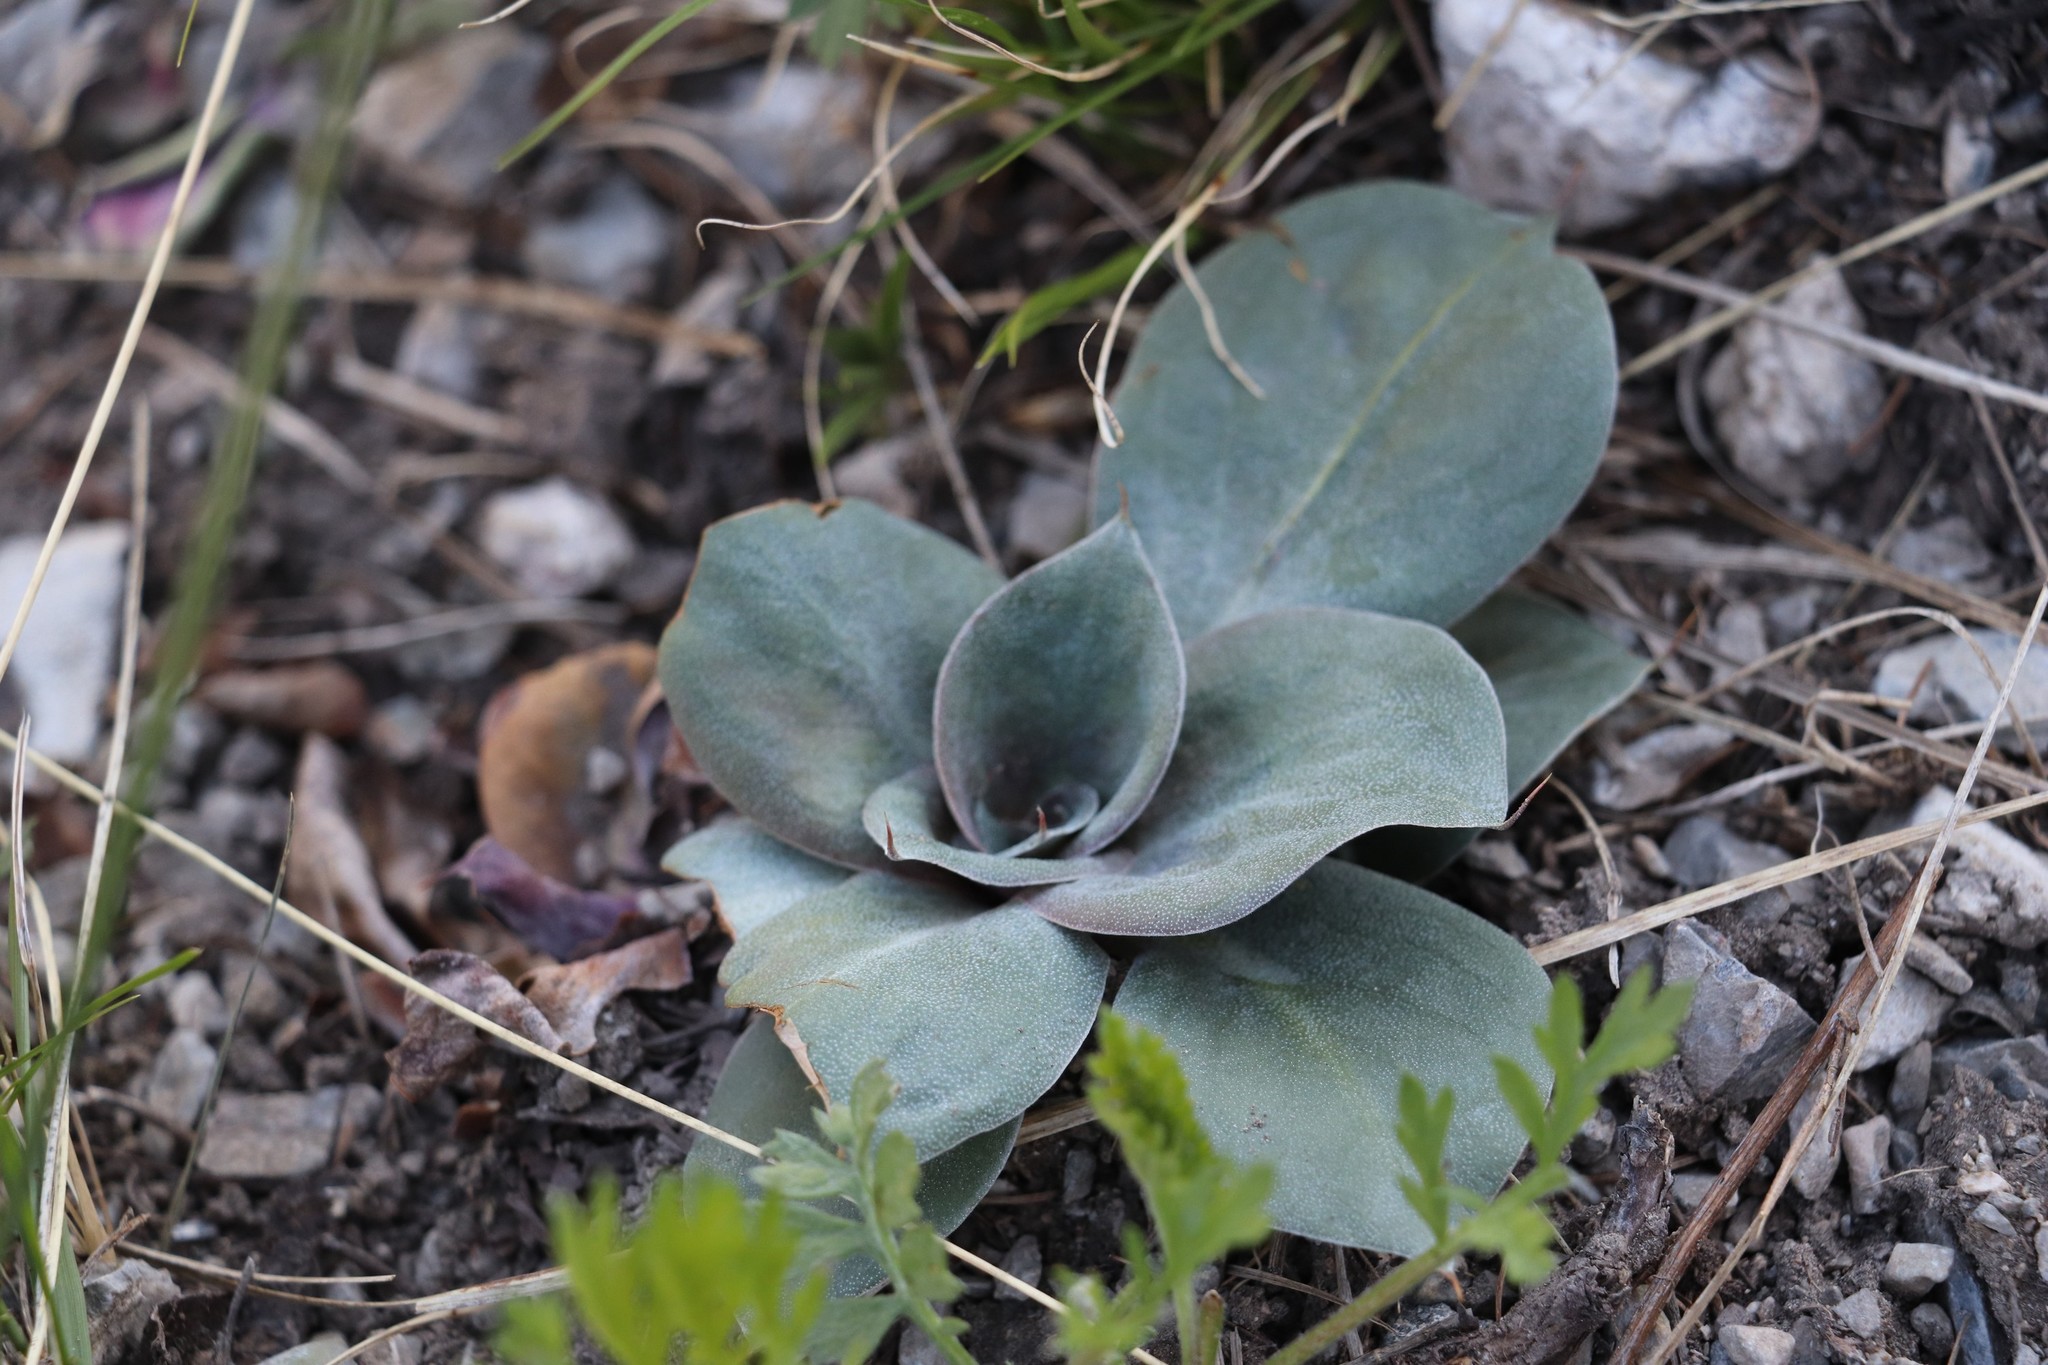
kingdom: Plantae
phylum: Tracheophyta
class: Magnoliopsida
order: Caryophyllales
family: Plumbaginaceae
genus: Goniolimon
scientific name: Goniolimon speciosum
